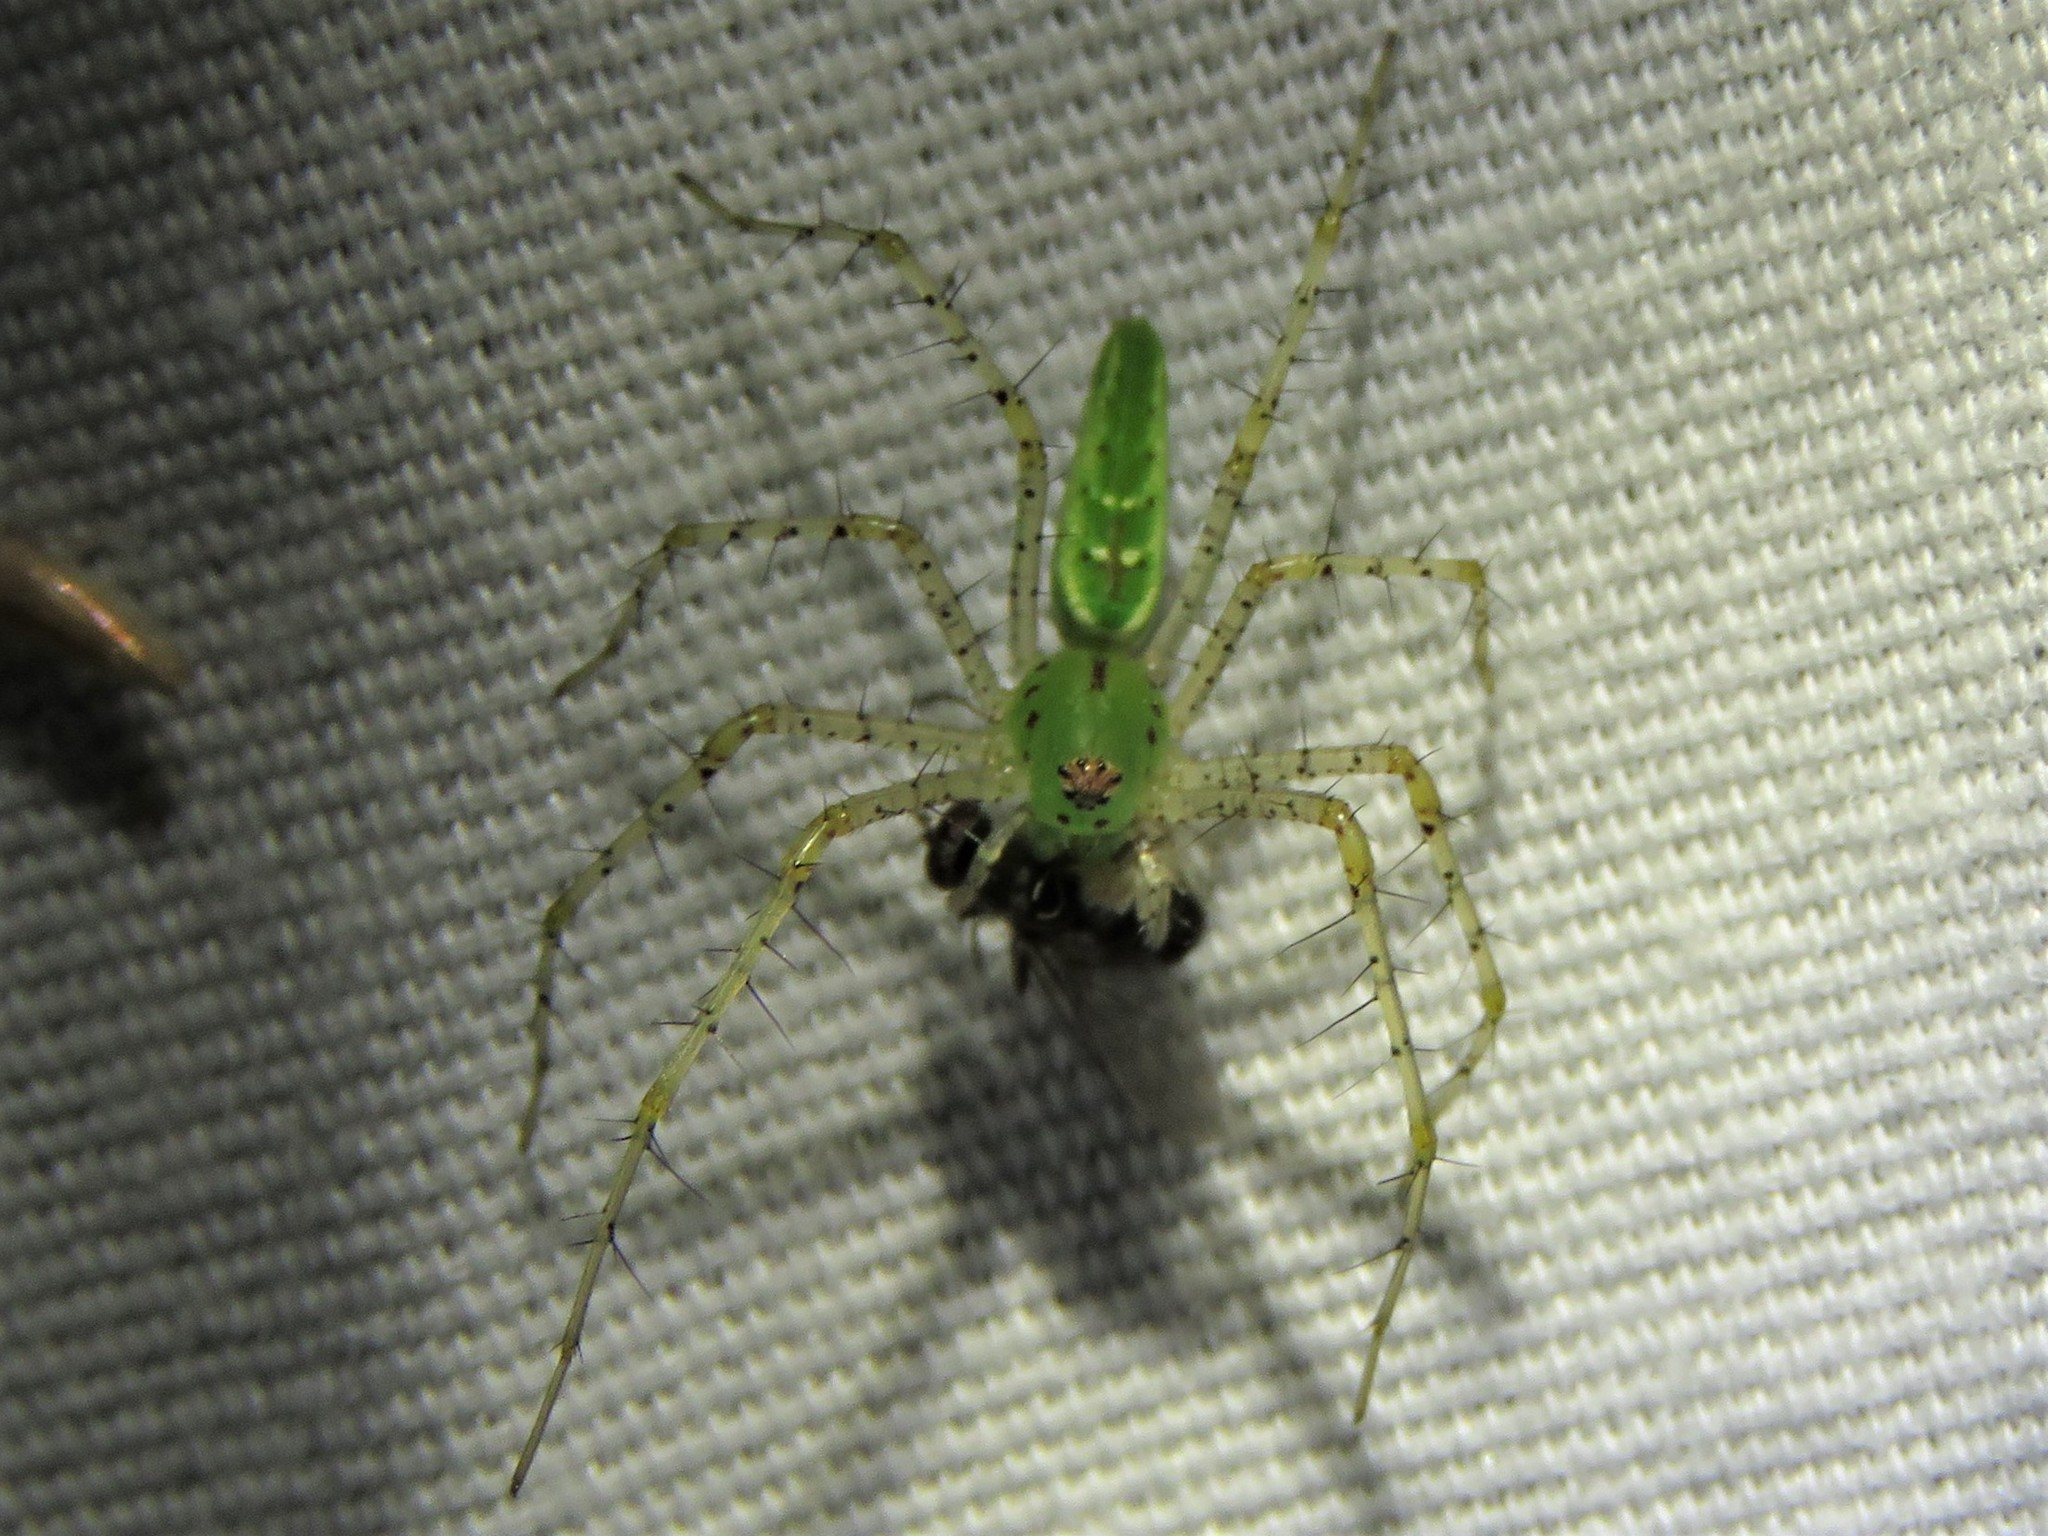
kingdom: Animalia
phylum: Arthropoda
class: Arachnida
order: Araneae
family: Oxyopidae
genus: Peucetia
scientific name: Peucetia viridans
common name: Lynx spiders
